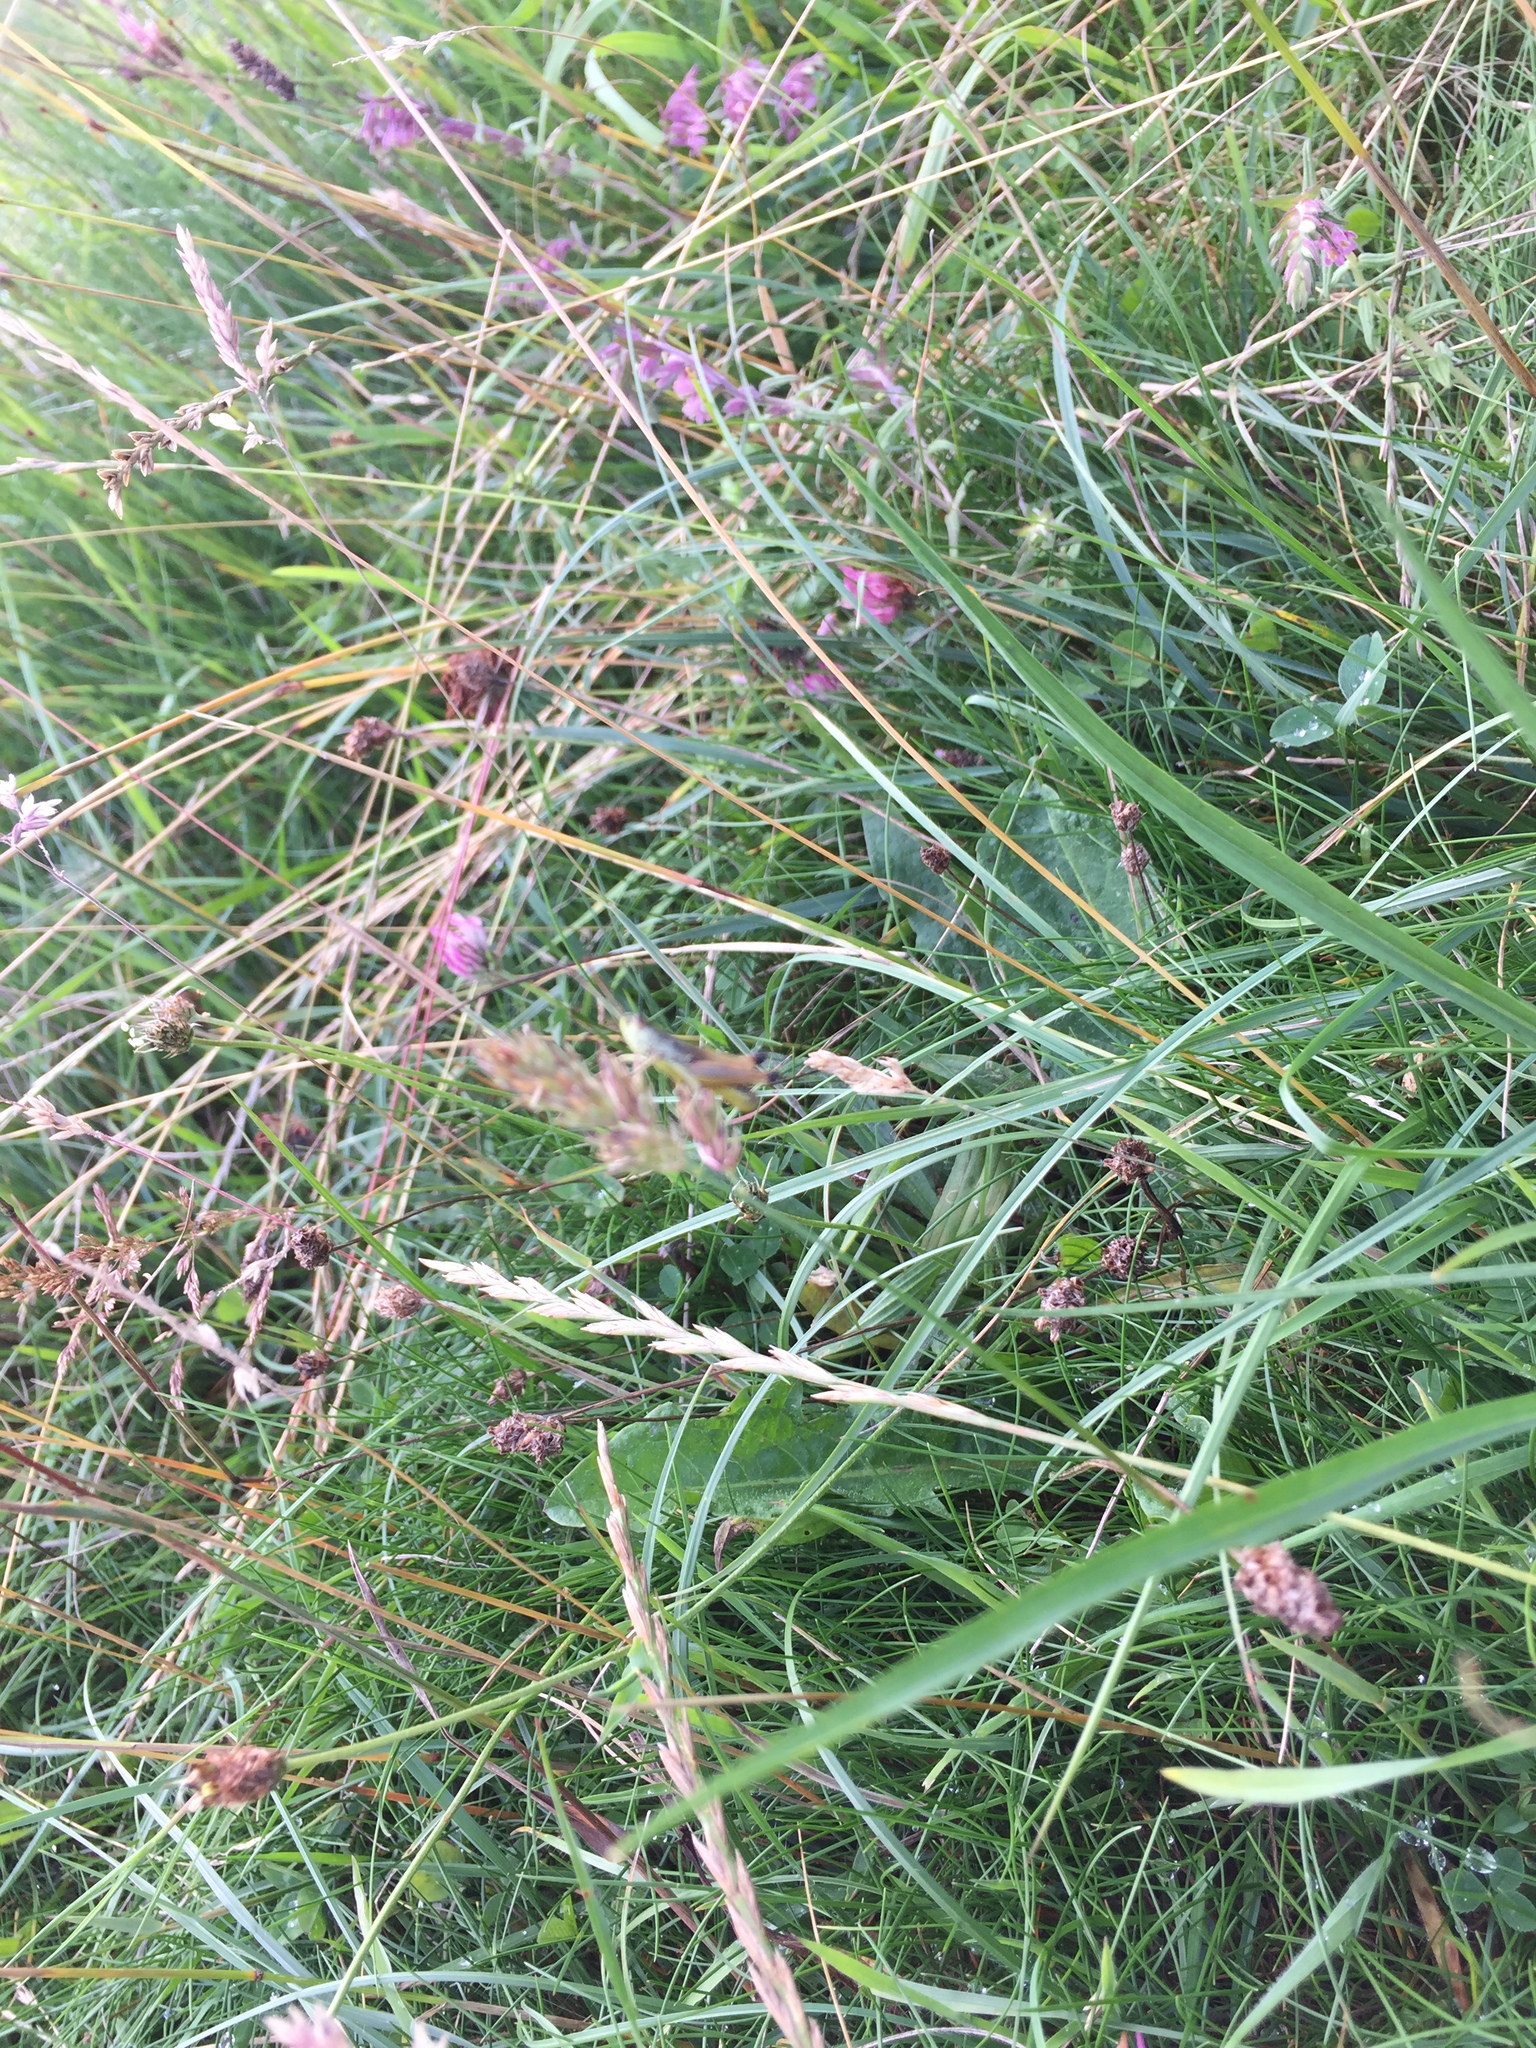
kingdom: Animalia
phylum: Arthropoda
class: Insecta
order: Orthoptera
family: Acrididae
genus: Pseudochorthippus
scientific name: Pseudochorthippus parallelus
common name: Meadow grasshopper
